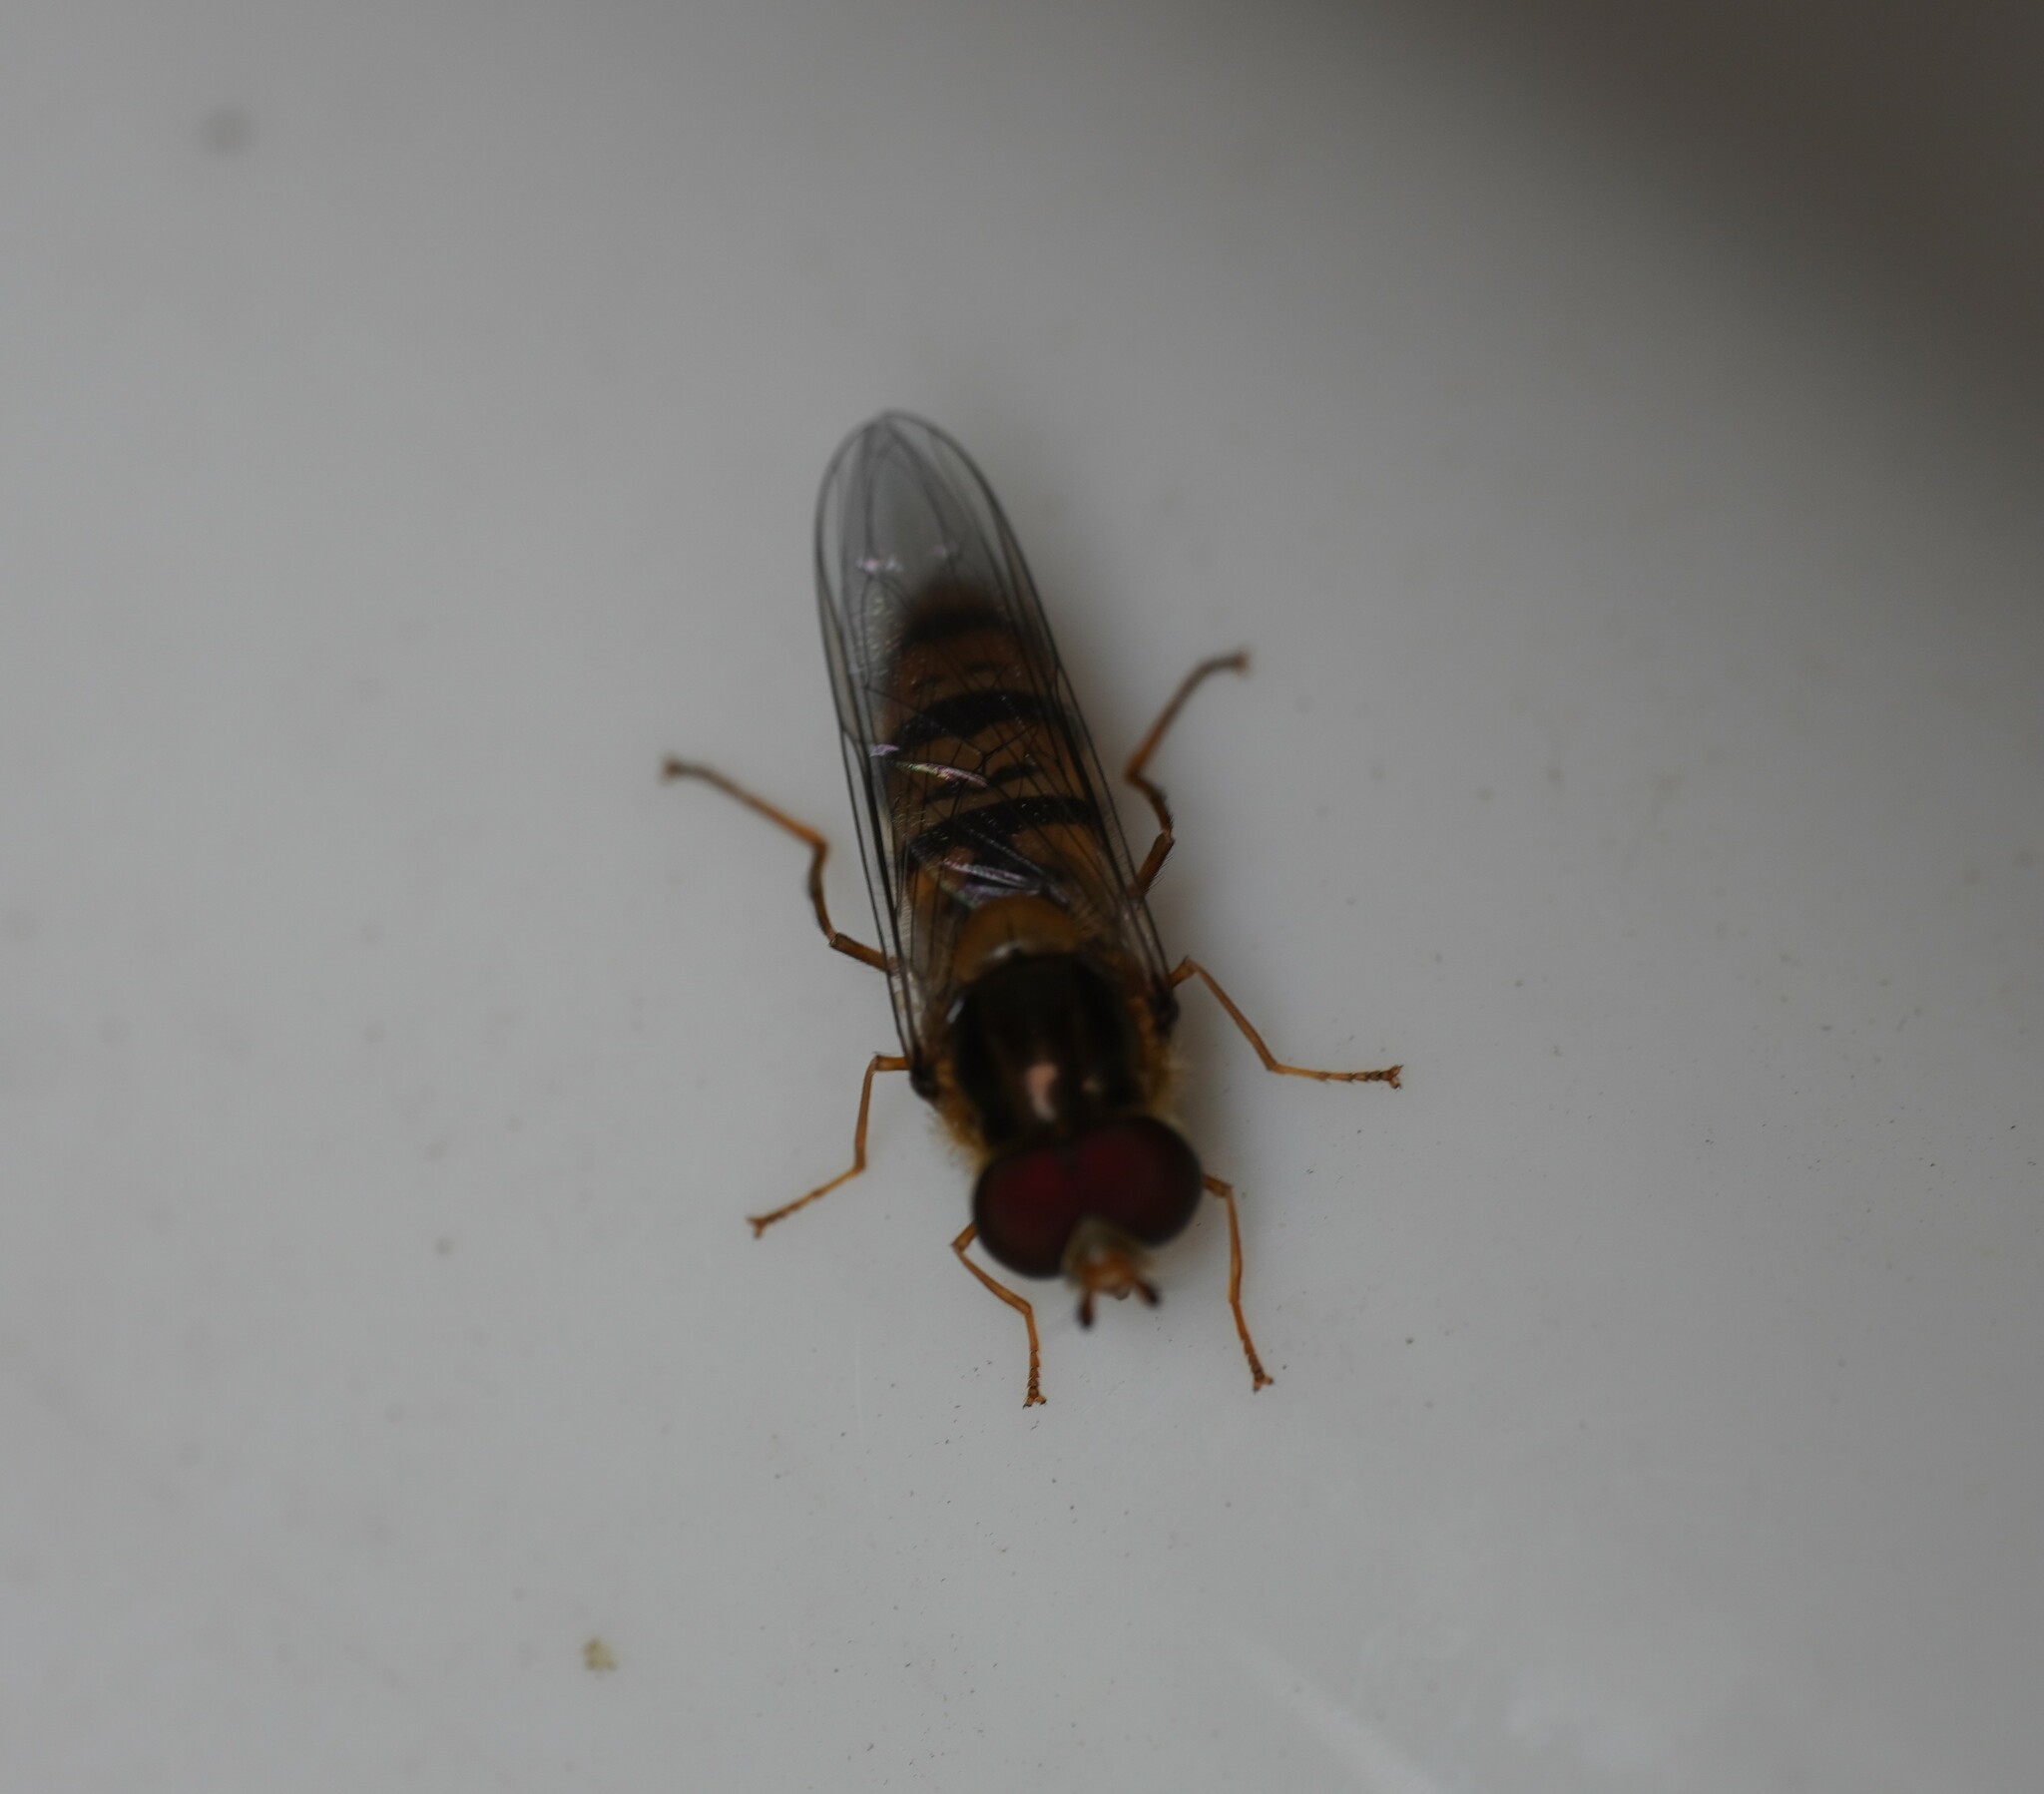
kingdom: Animalia
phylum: Arthropoda
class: Insecta
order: Diptera
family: Syrphidae
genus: Episyrphus
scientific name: Episyrphus balteatus
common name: Marmalade hoverfly
